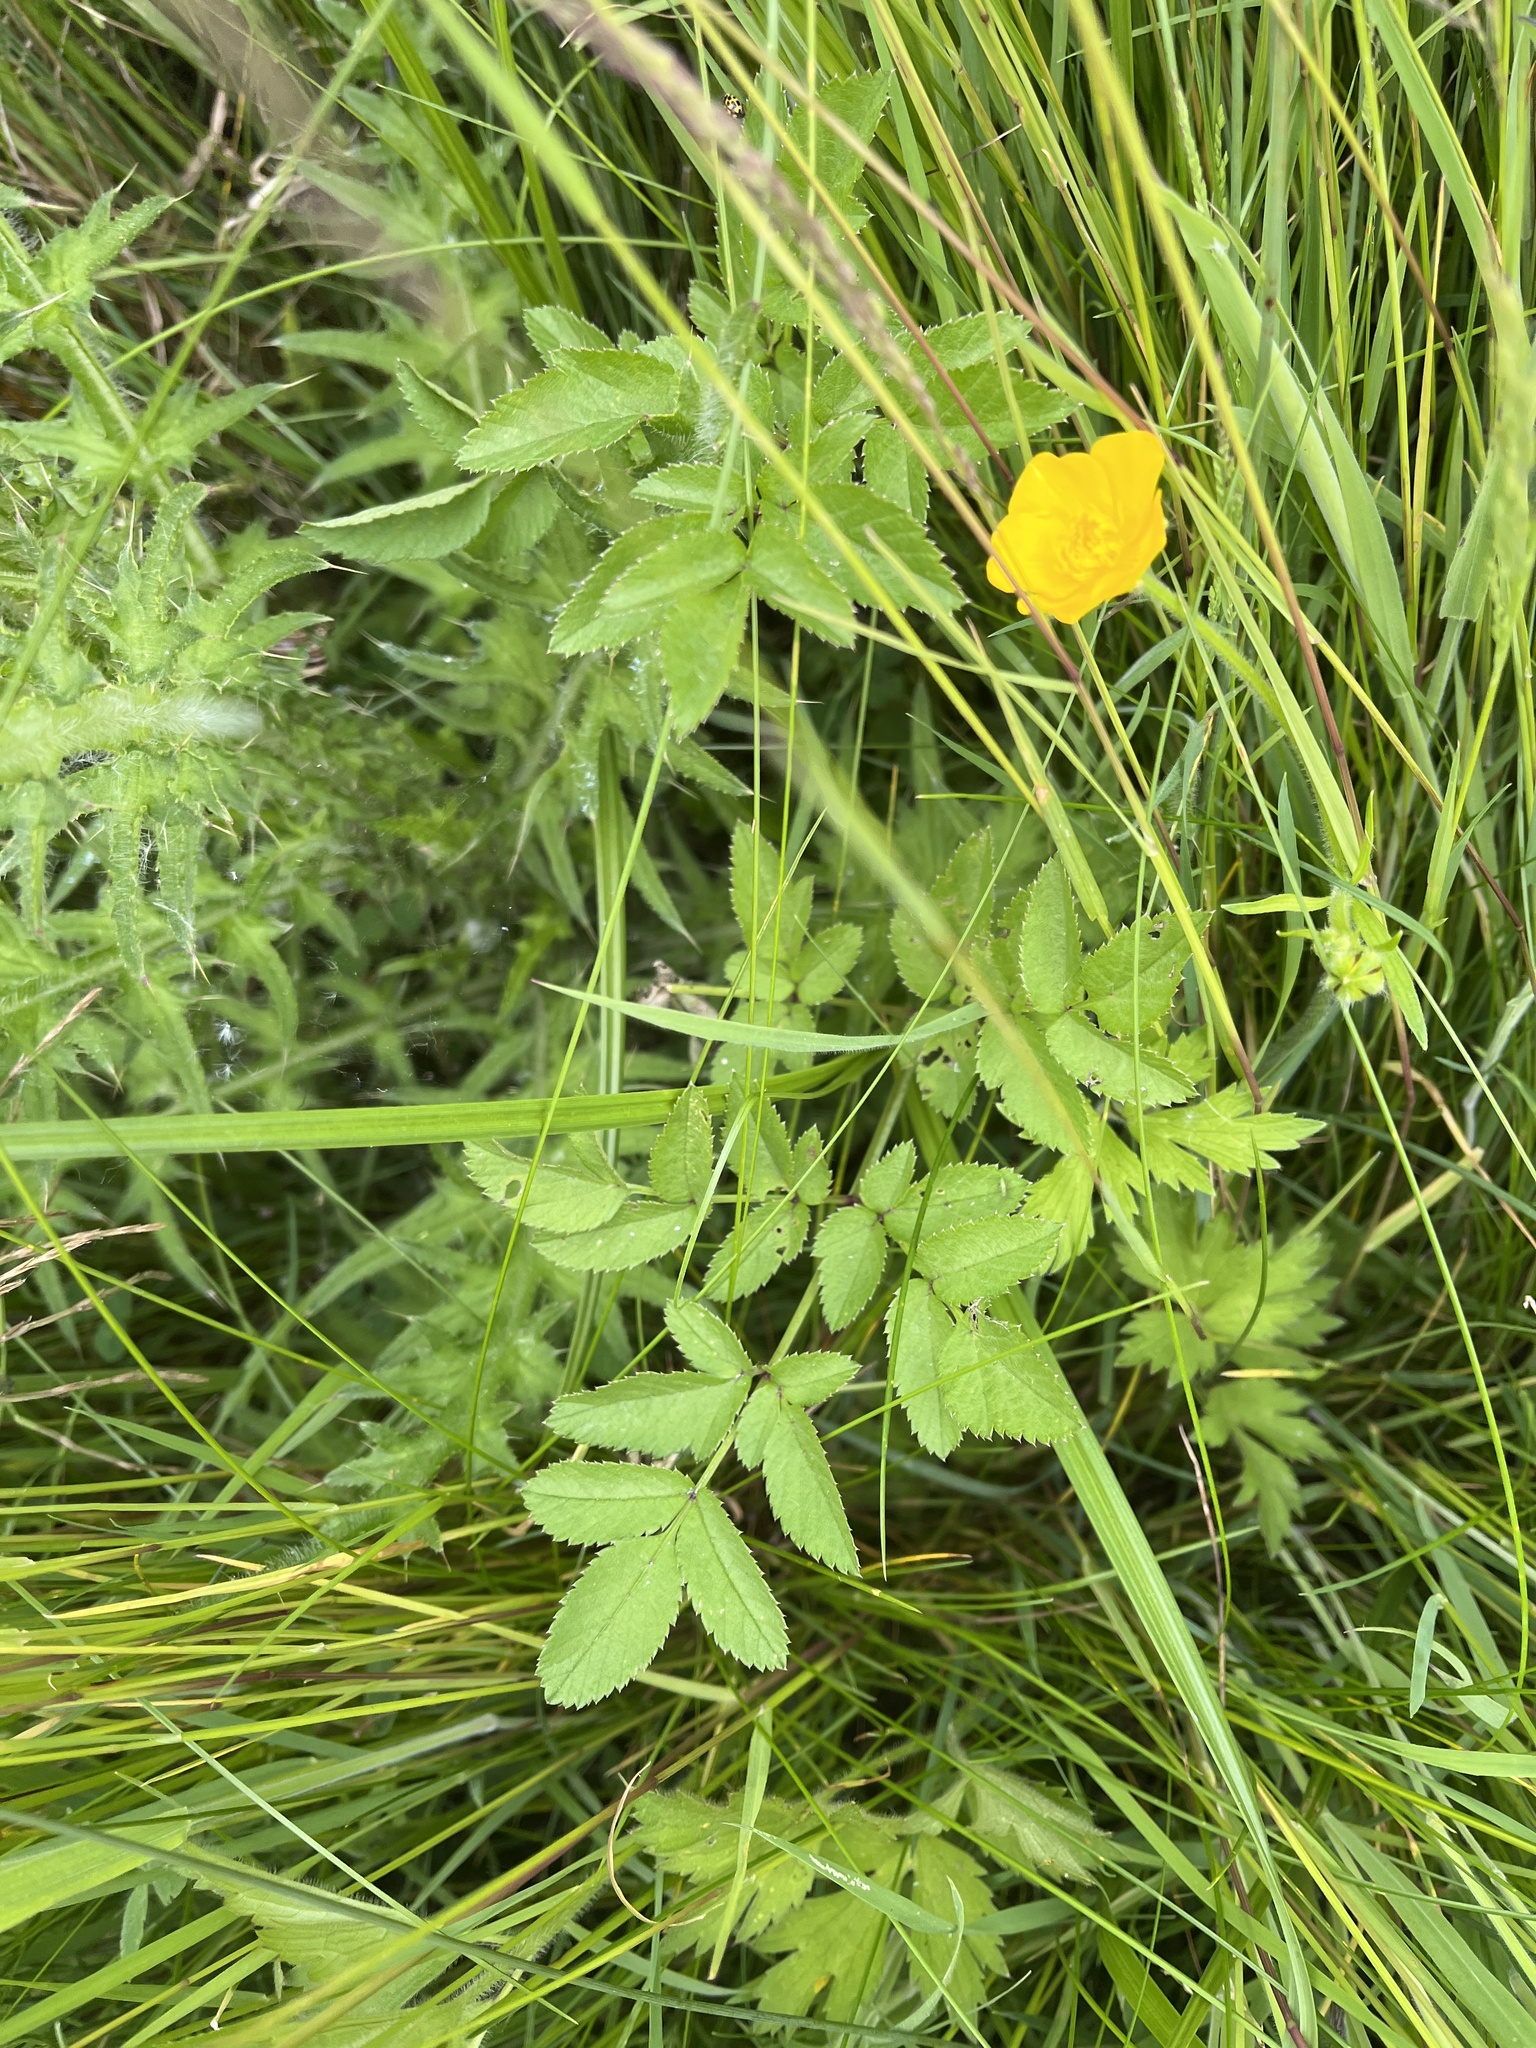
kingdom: Plantae
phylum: Tracheophyta
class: Magnoliopsida
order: Apiales
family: Apiaceae
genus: Angelica
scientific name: Angelica sylvestris
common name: Wild angelica
